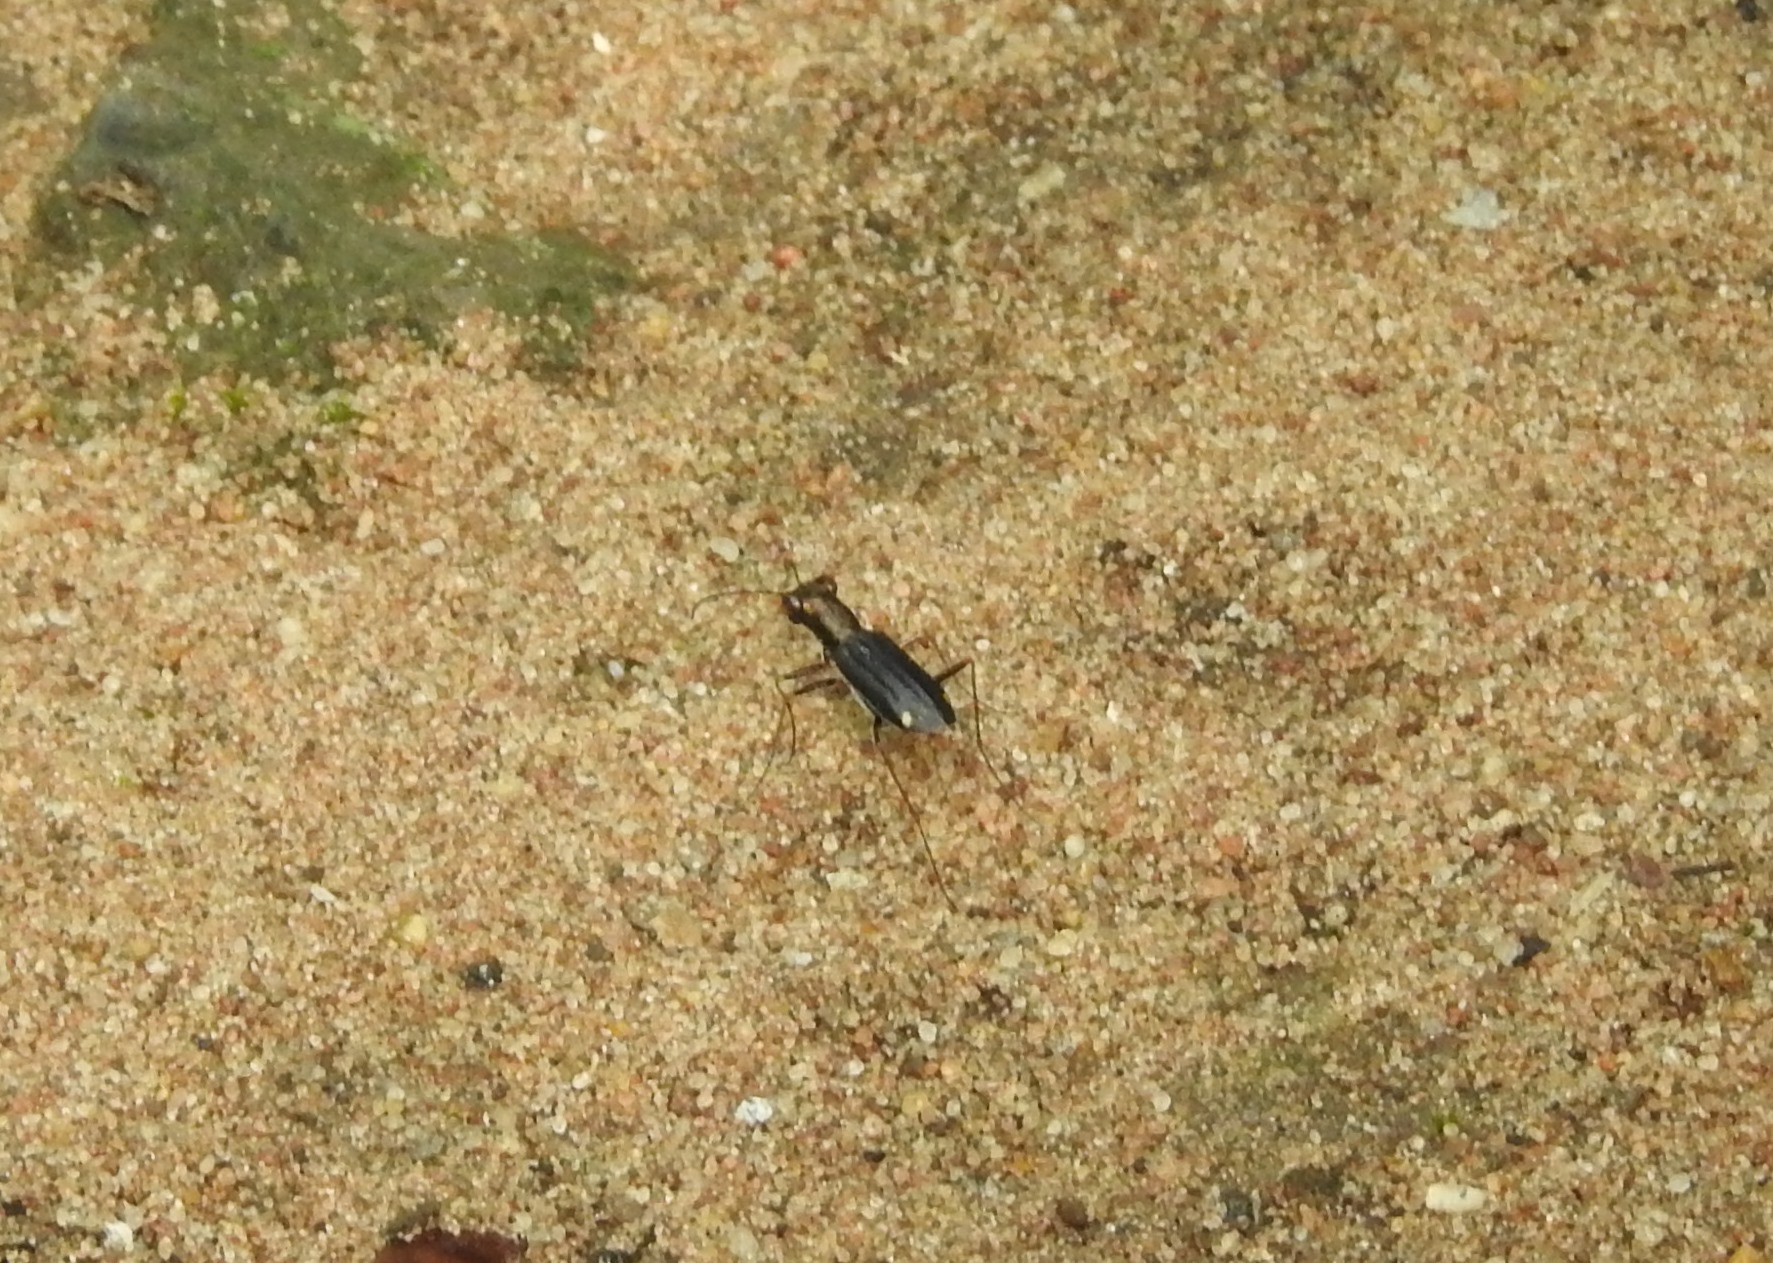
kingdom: Animalia
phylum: Arthropoda
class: Insecta
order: Coleoptera
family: Carabidae
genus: Jansenia
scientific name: Jansenia tetrastacta
